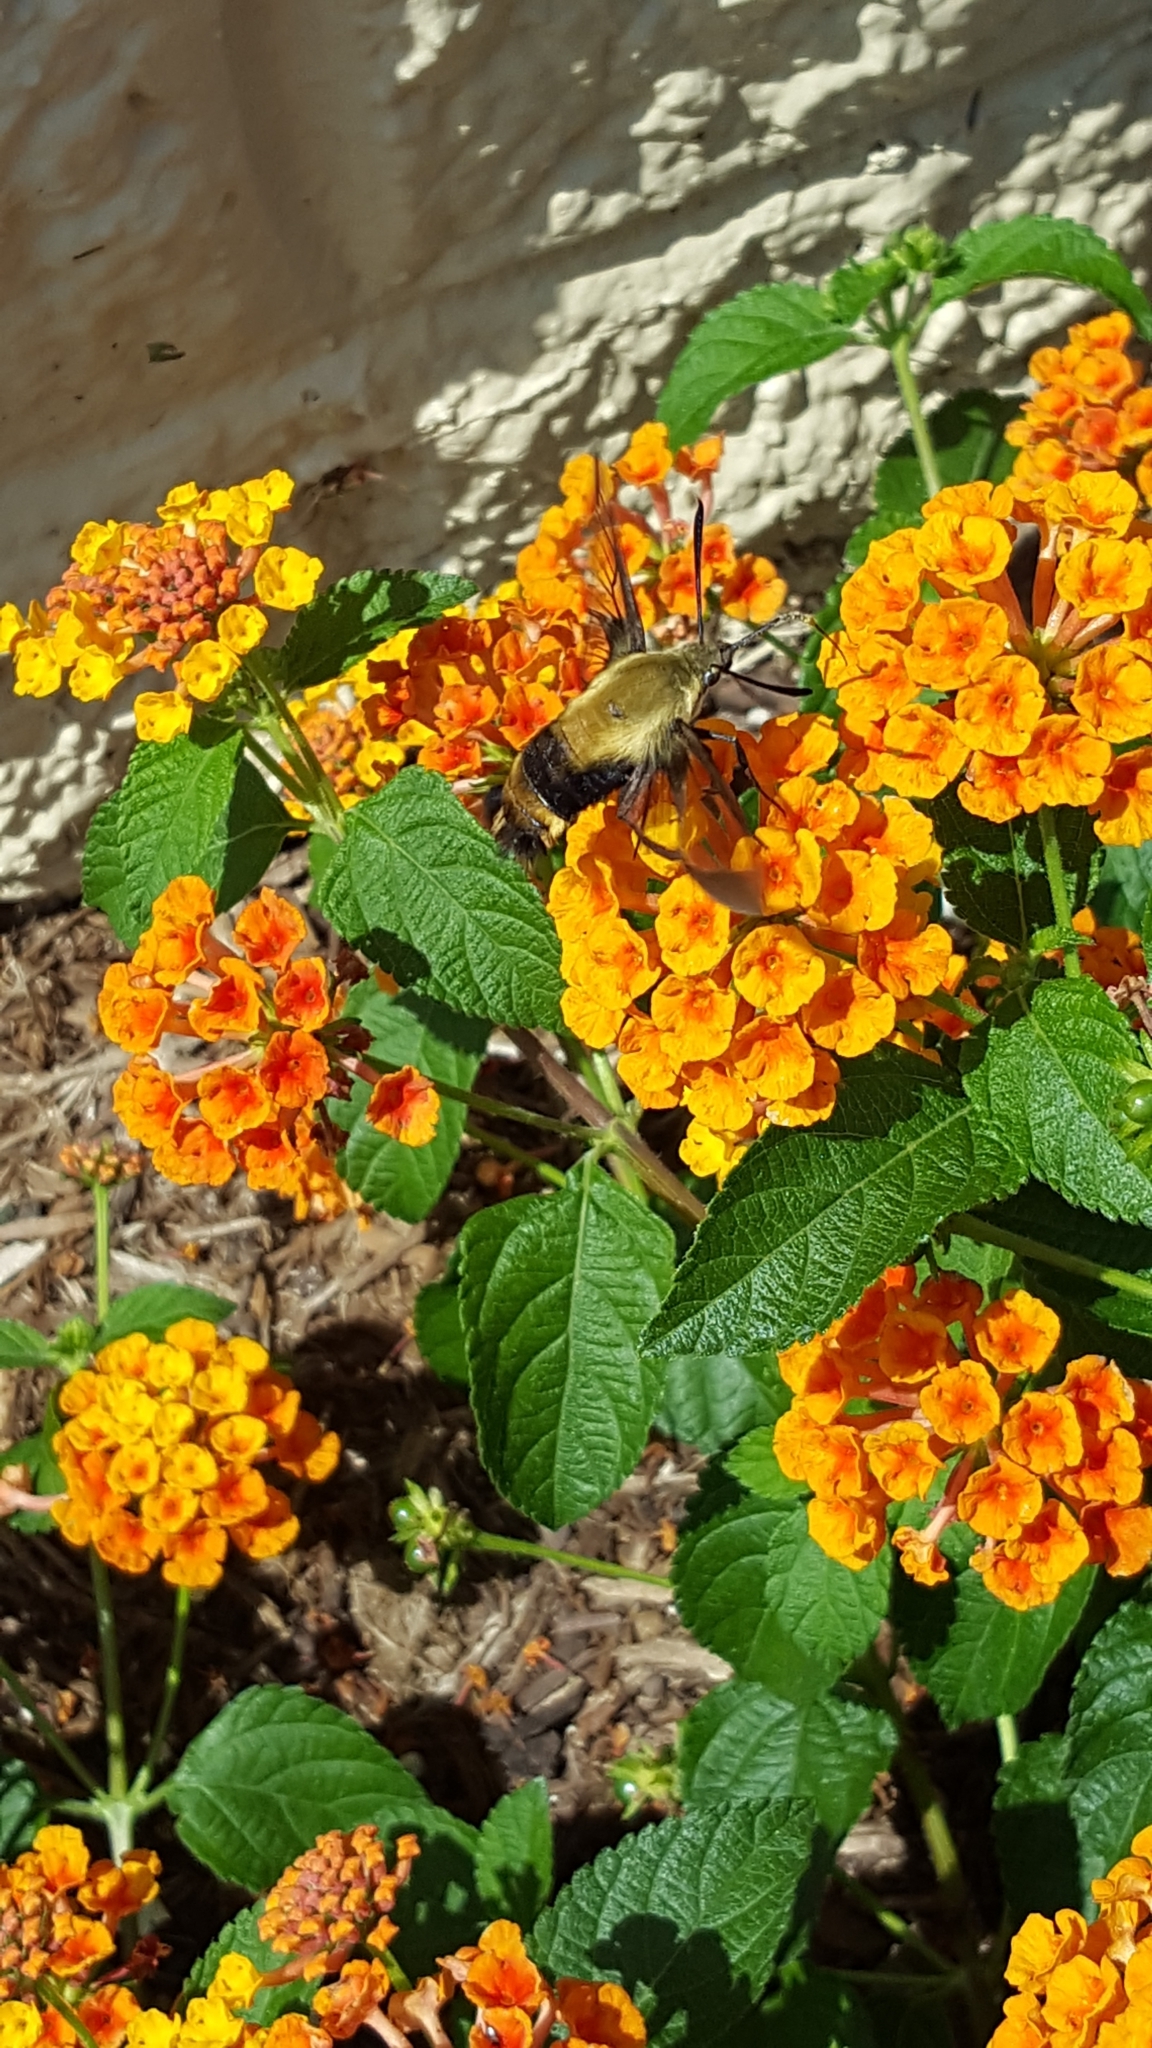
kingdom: Animalia
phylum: Arthropoda
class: Insecta
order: Lepidoptera
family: Sphingidae
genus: Hemaris
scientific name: Hemaris diffinis
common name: Bumblebee moth
